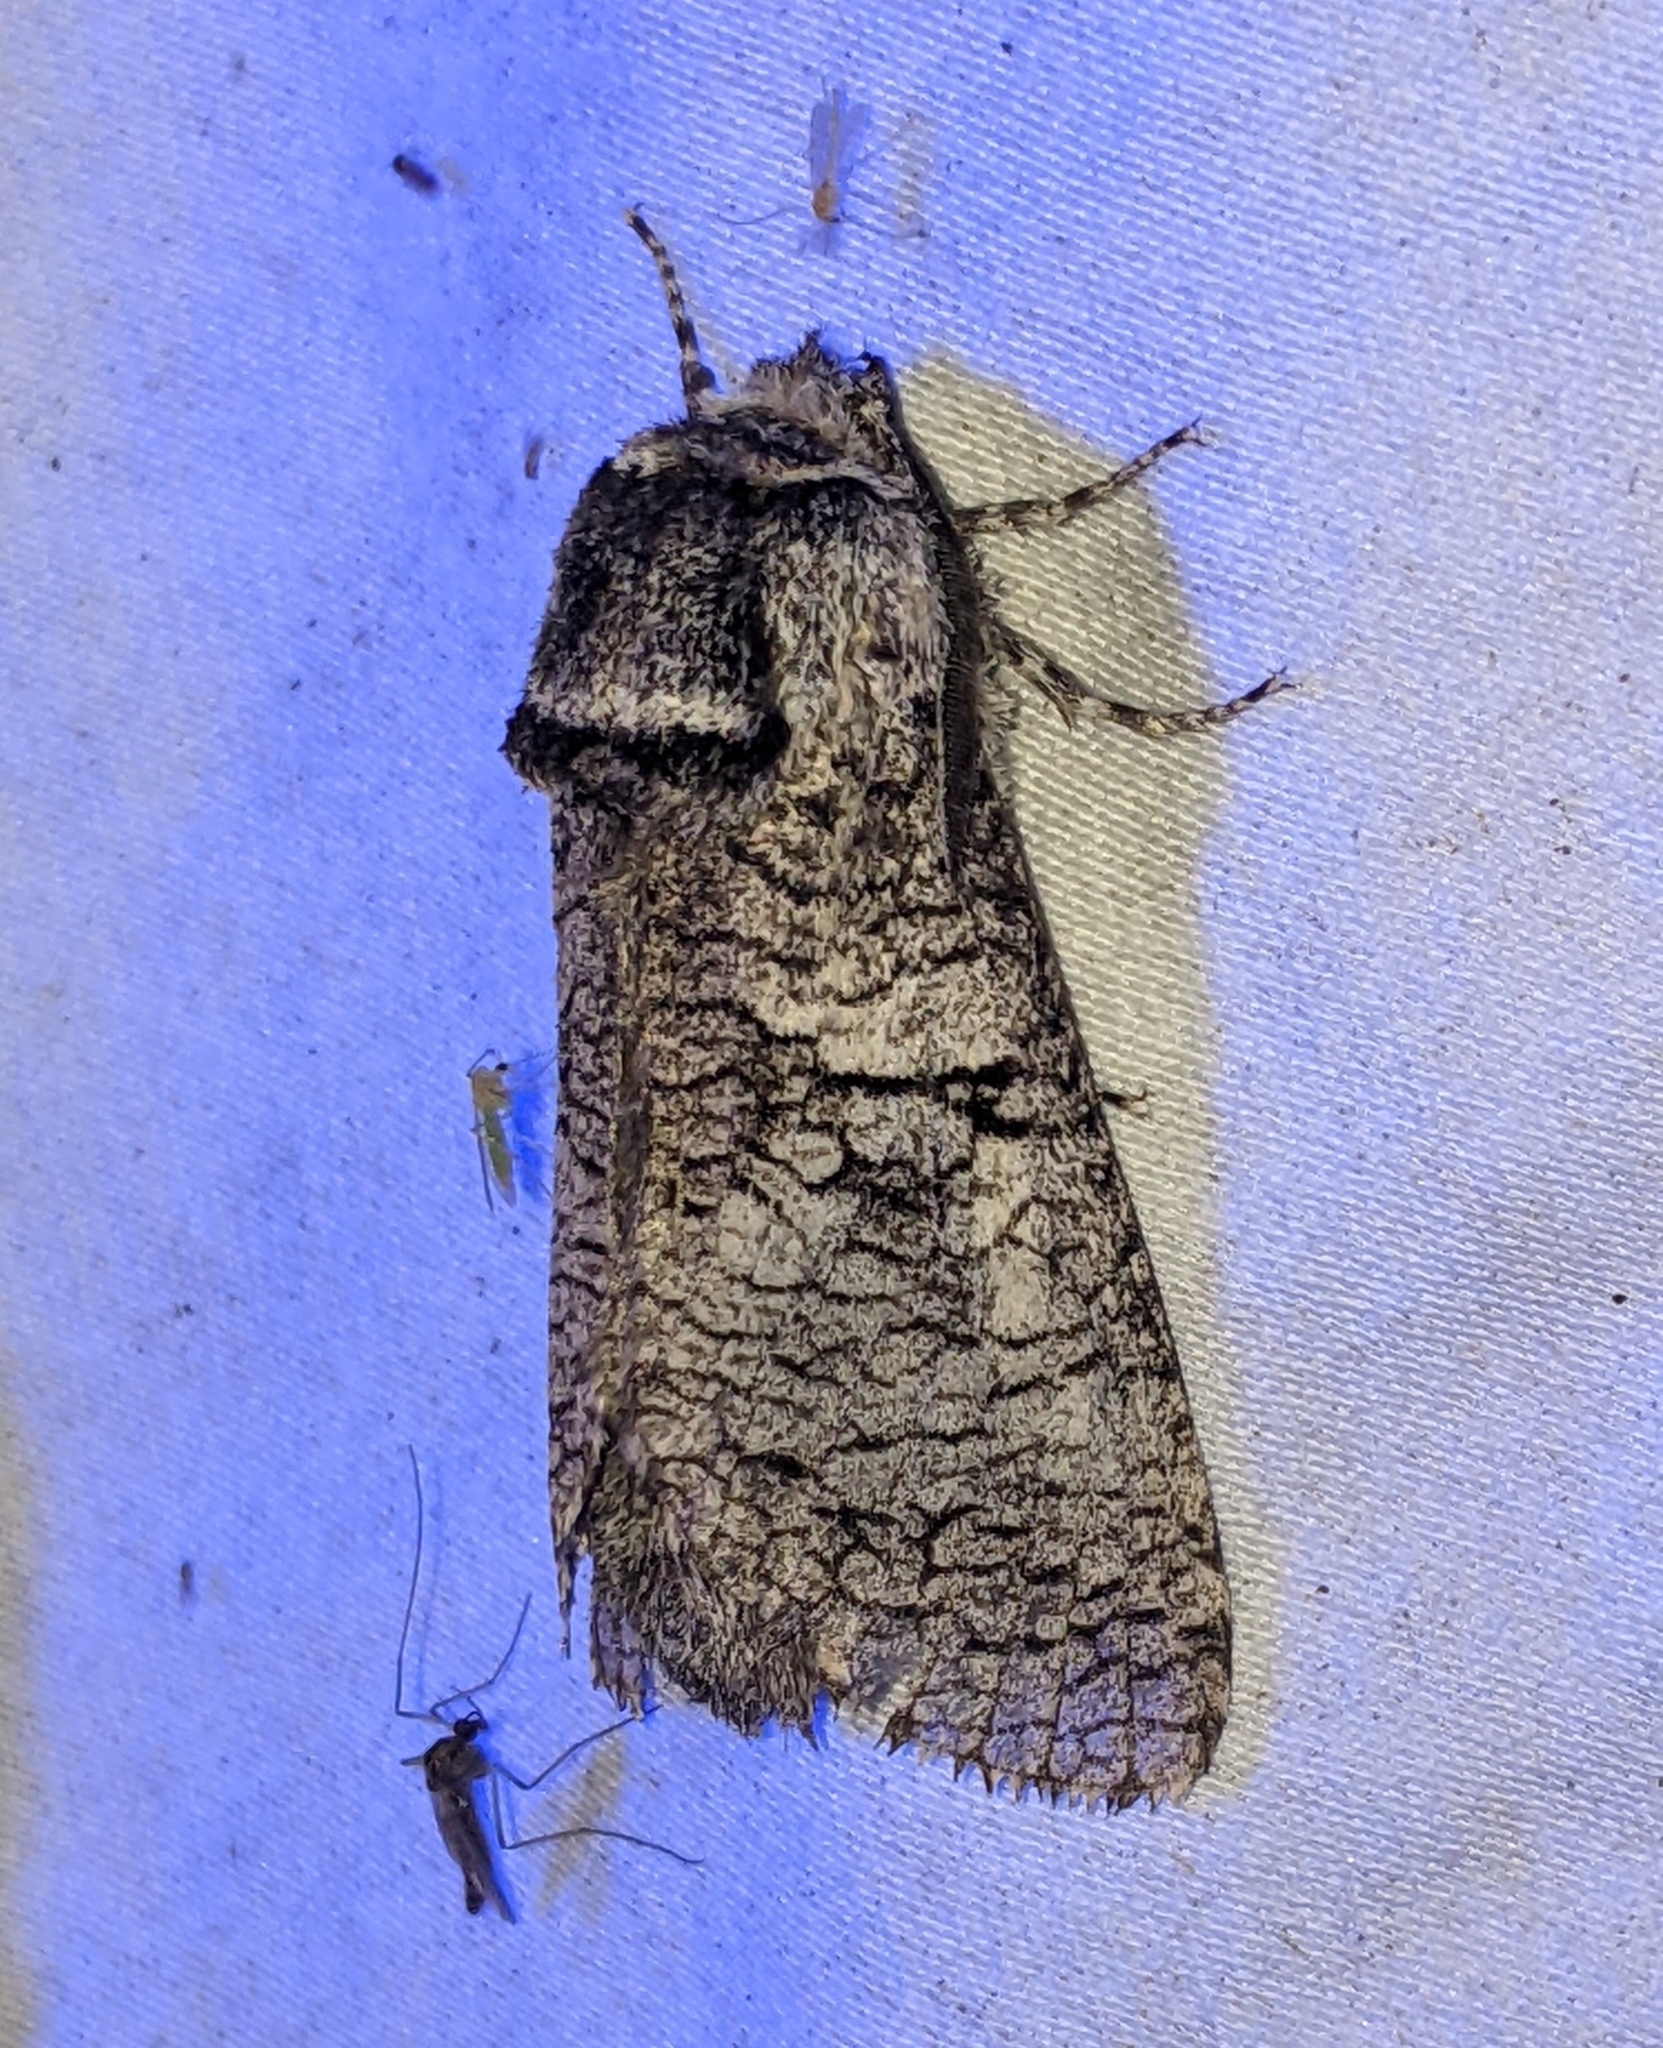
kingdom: Animalia
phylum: Arthropoda
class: Insecta
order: Lepidoptera
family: Cossidae
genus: Acossus
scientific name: Acossus populi
